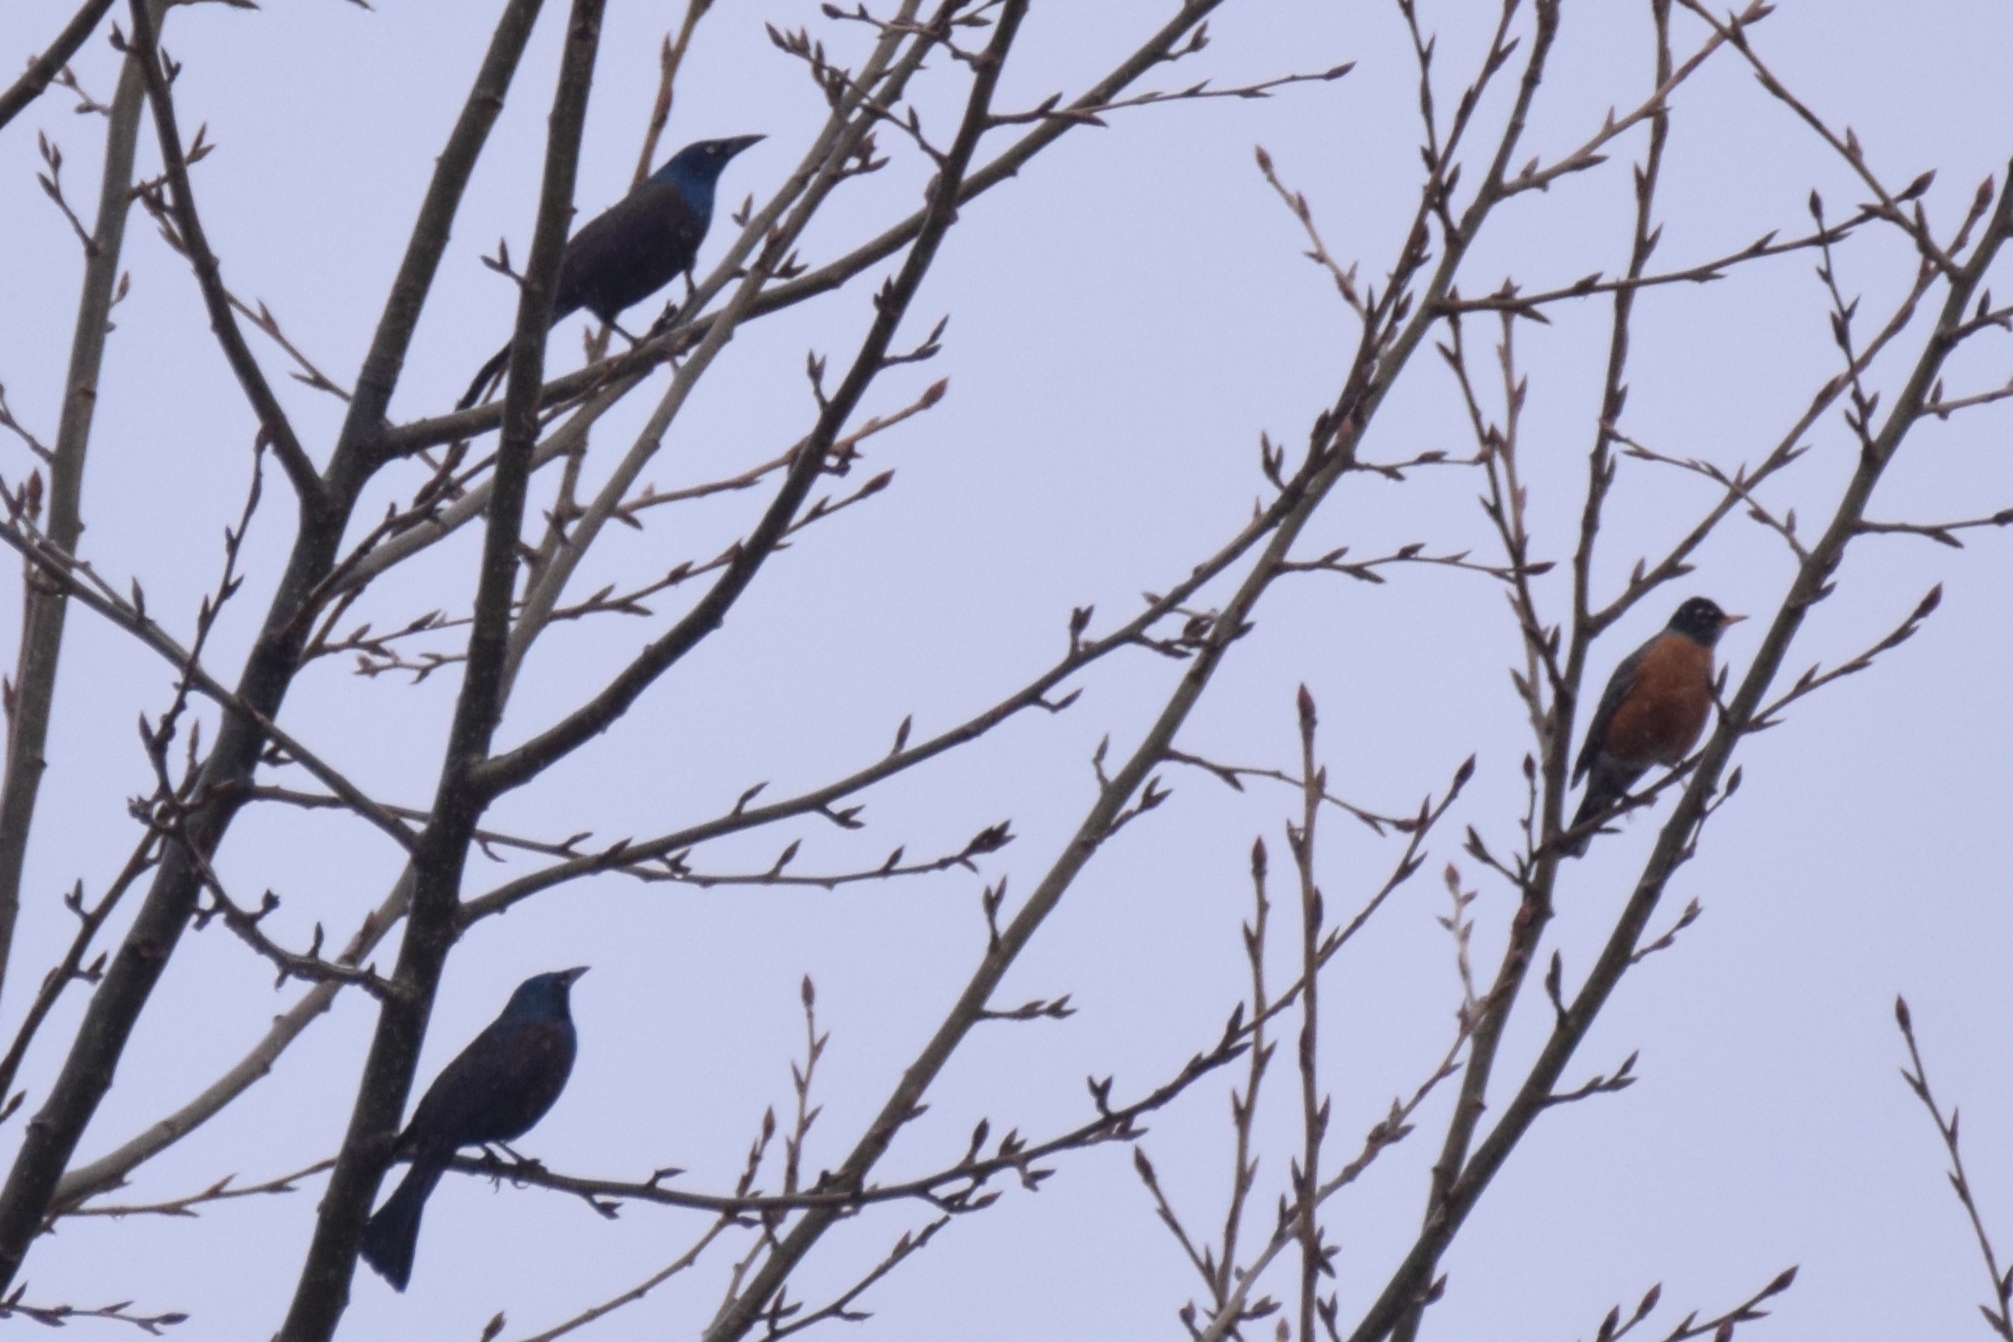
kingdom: Animalia
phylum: Chordata
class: Aves
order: Passeriformes
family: Icteridae
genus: Quiscalus
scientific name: Quiscalus quiscula
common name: Common grackle
